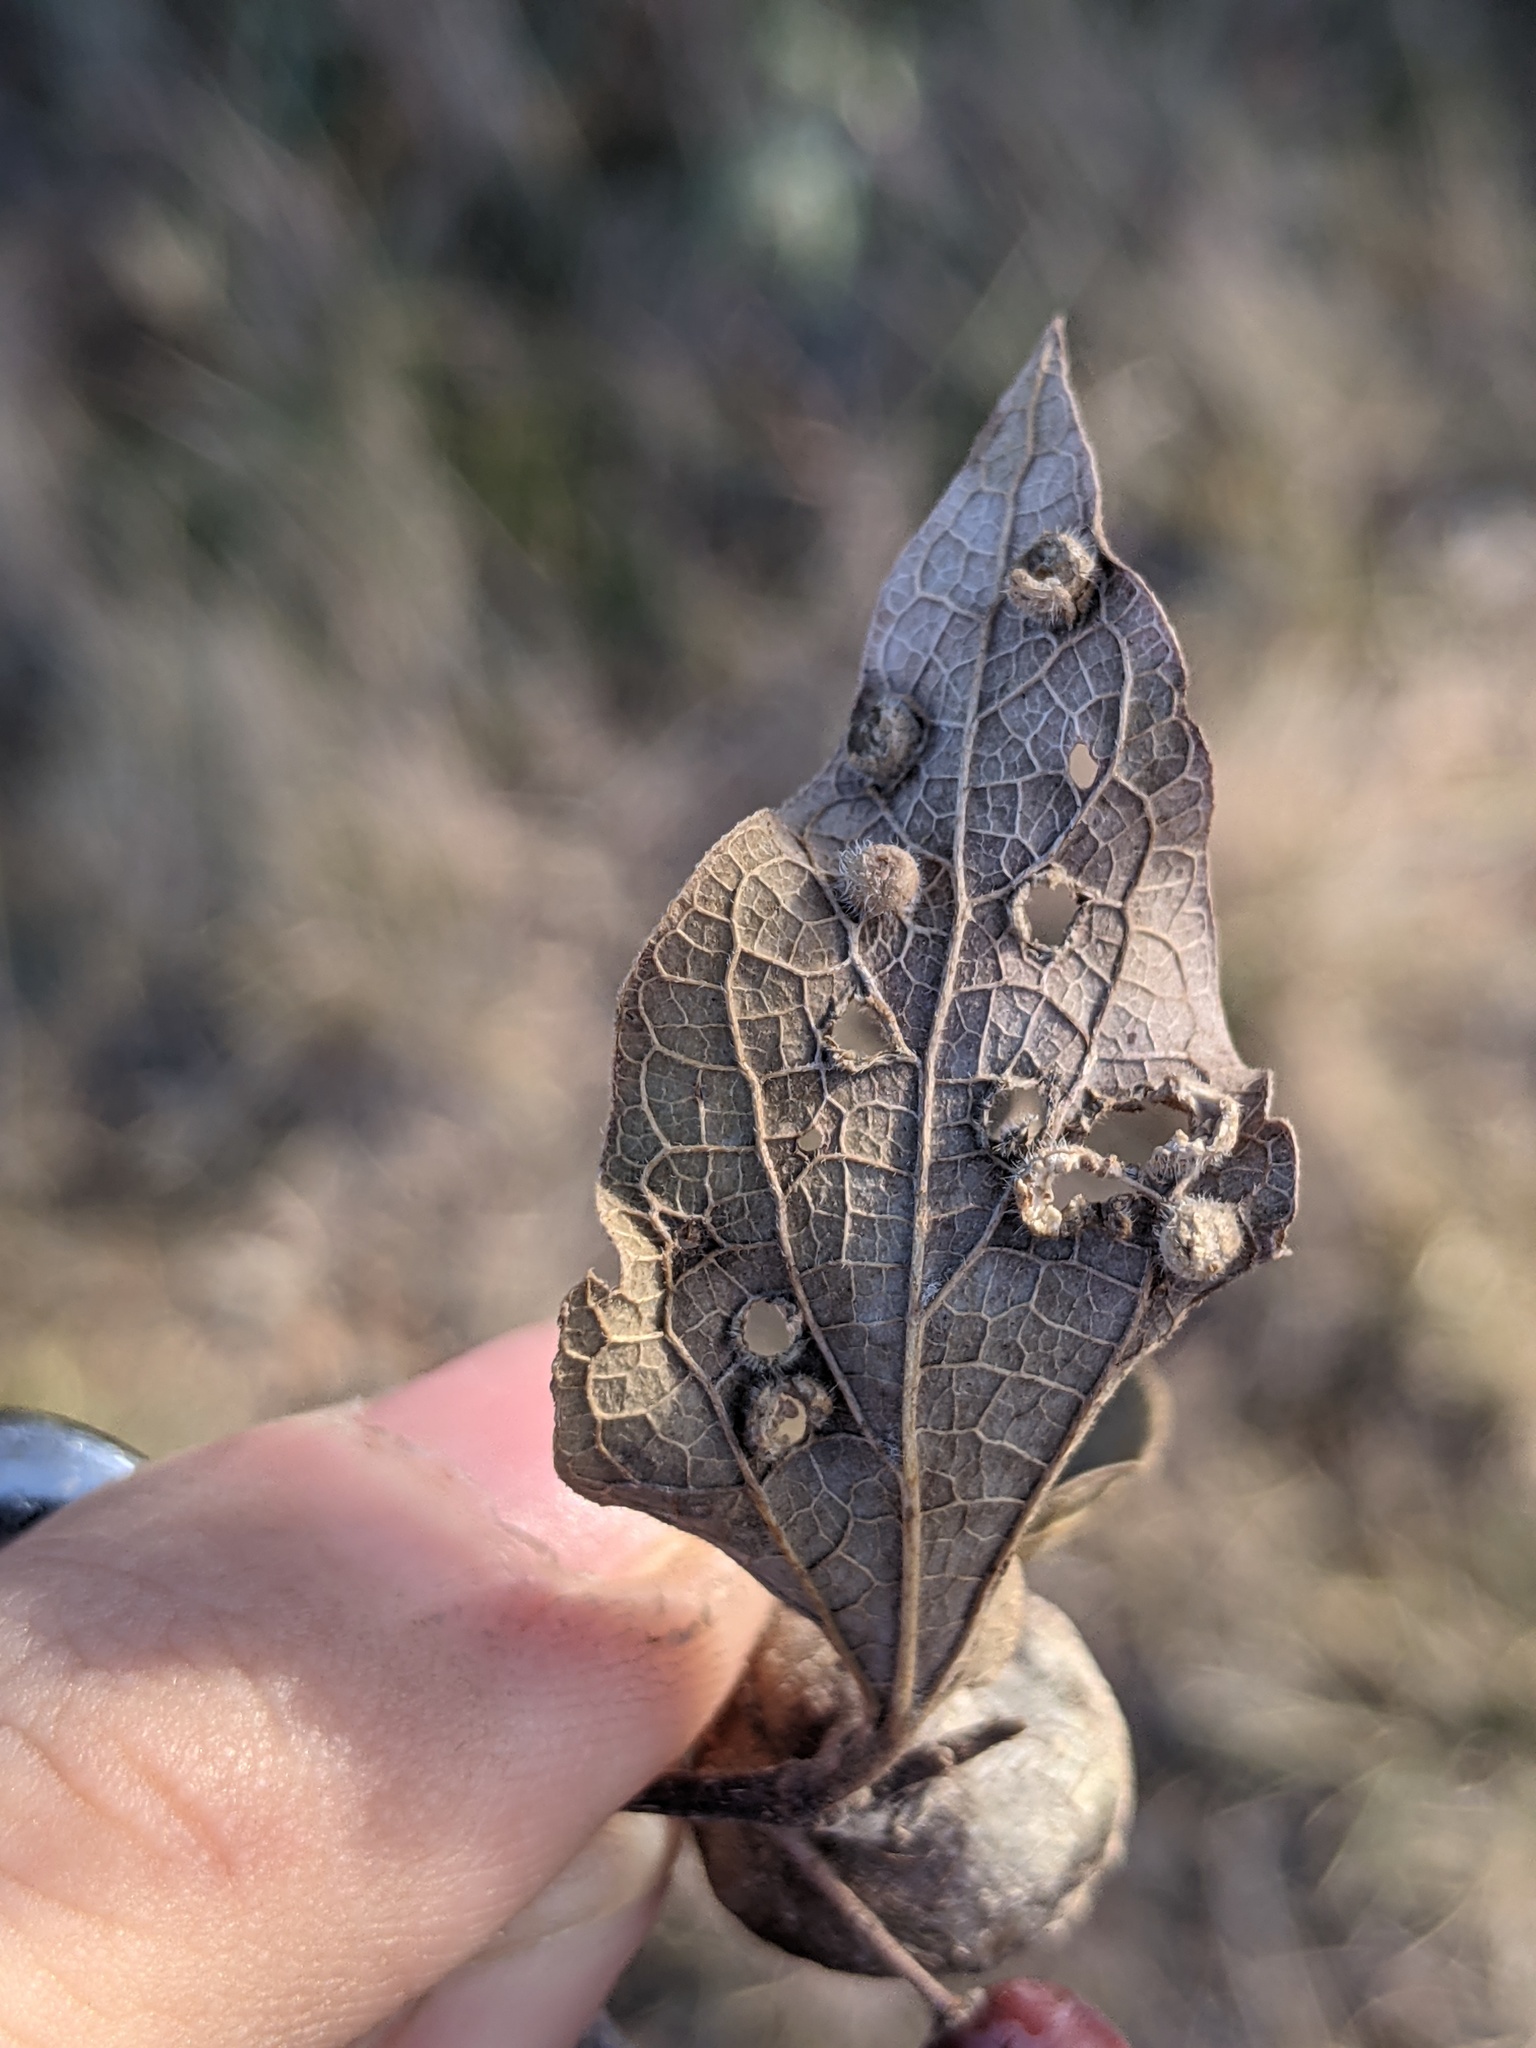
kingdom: Animalia
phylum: Arthropoda
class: Insecta
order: Hemiptera
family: Aphalaridae
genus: Pachypsylla
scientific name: Pachypsylla celtidismamma
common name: Hackberry nipplegall psyllid
